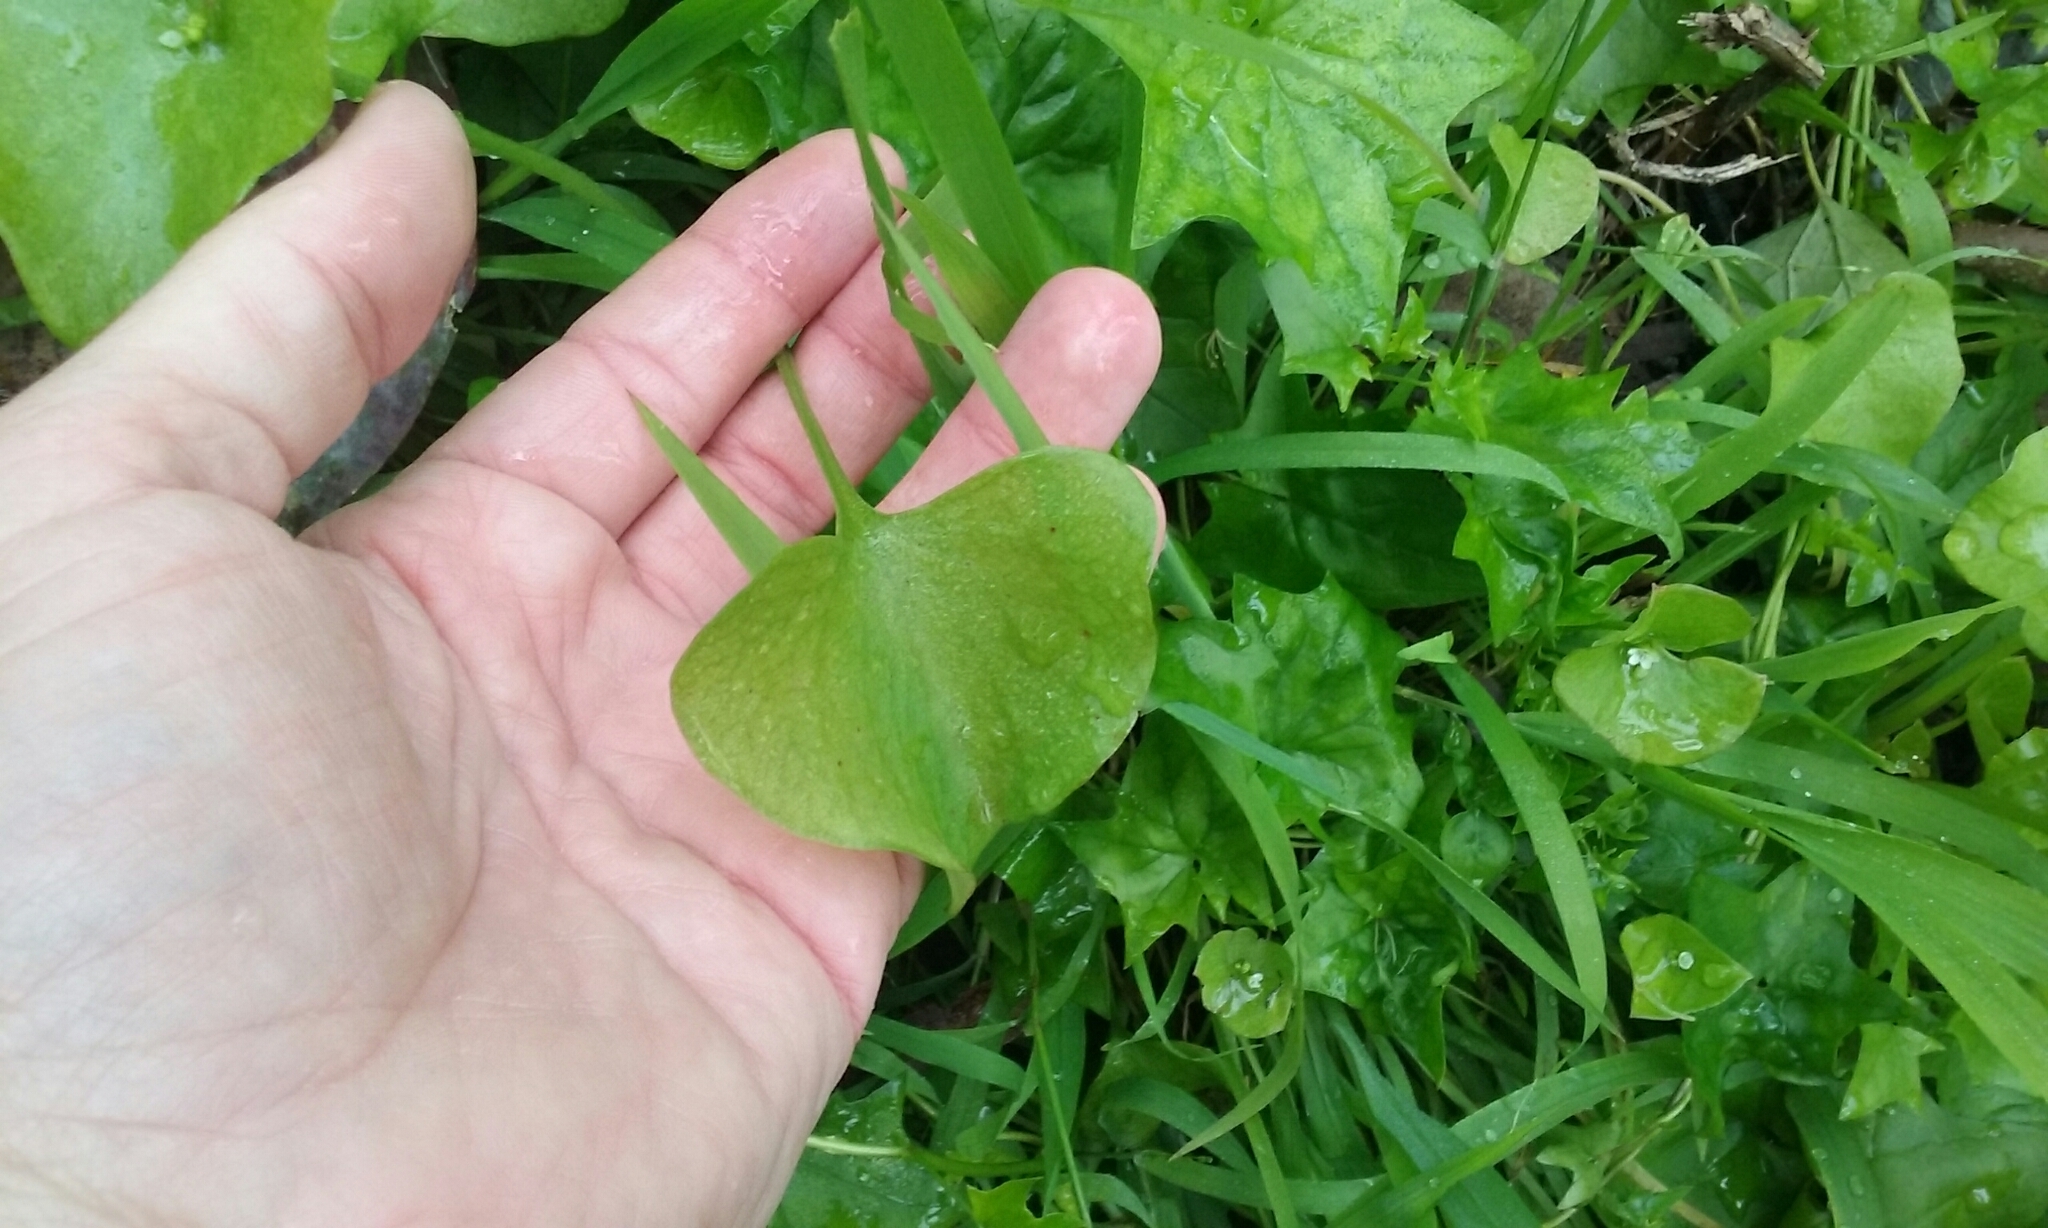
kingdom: Plantae
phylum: Tracheophyta
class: Magnoliopsida
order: Caryophyllales
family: Montiaceae
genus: Claytonia
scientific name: Claytonia perfoliata
